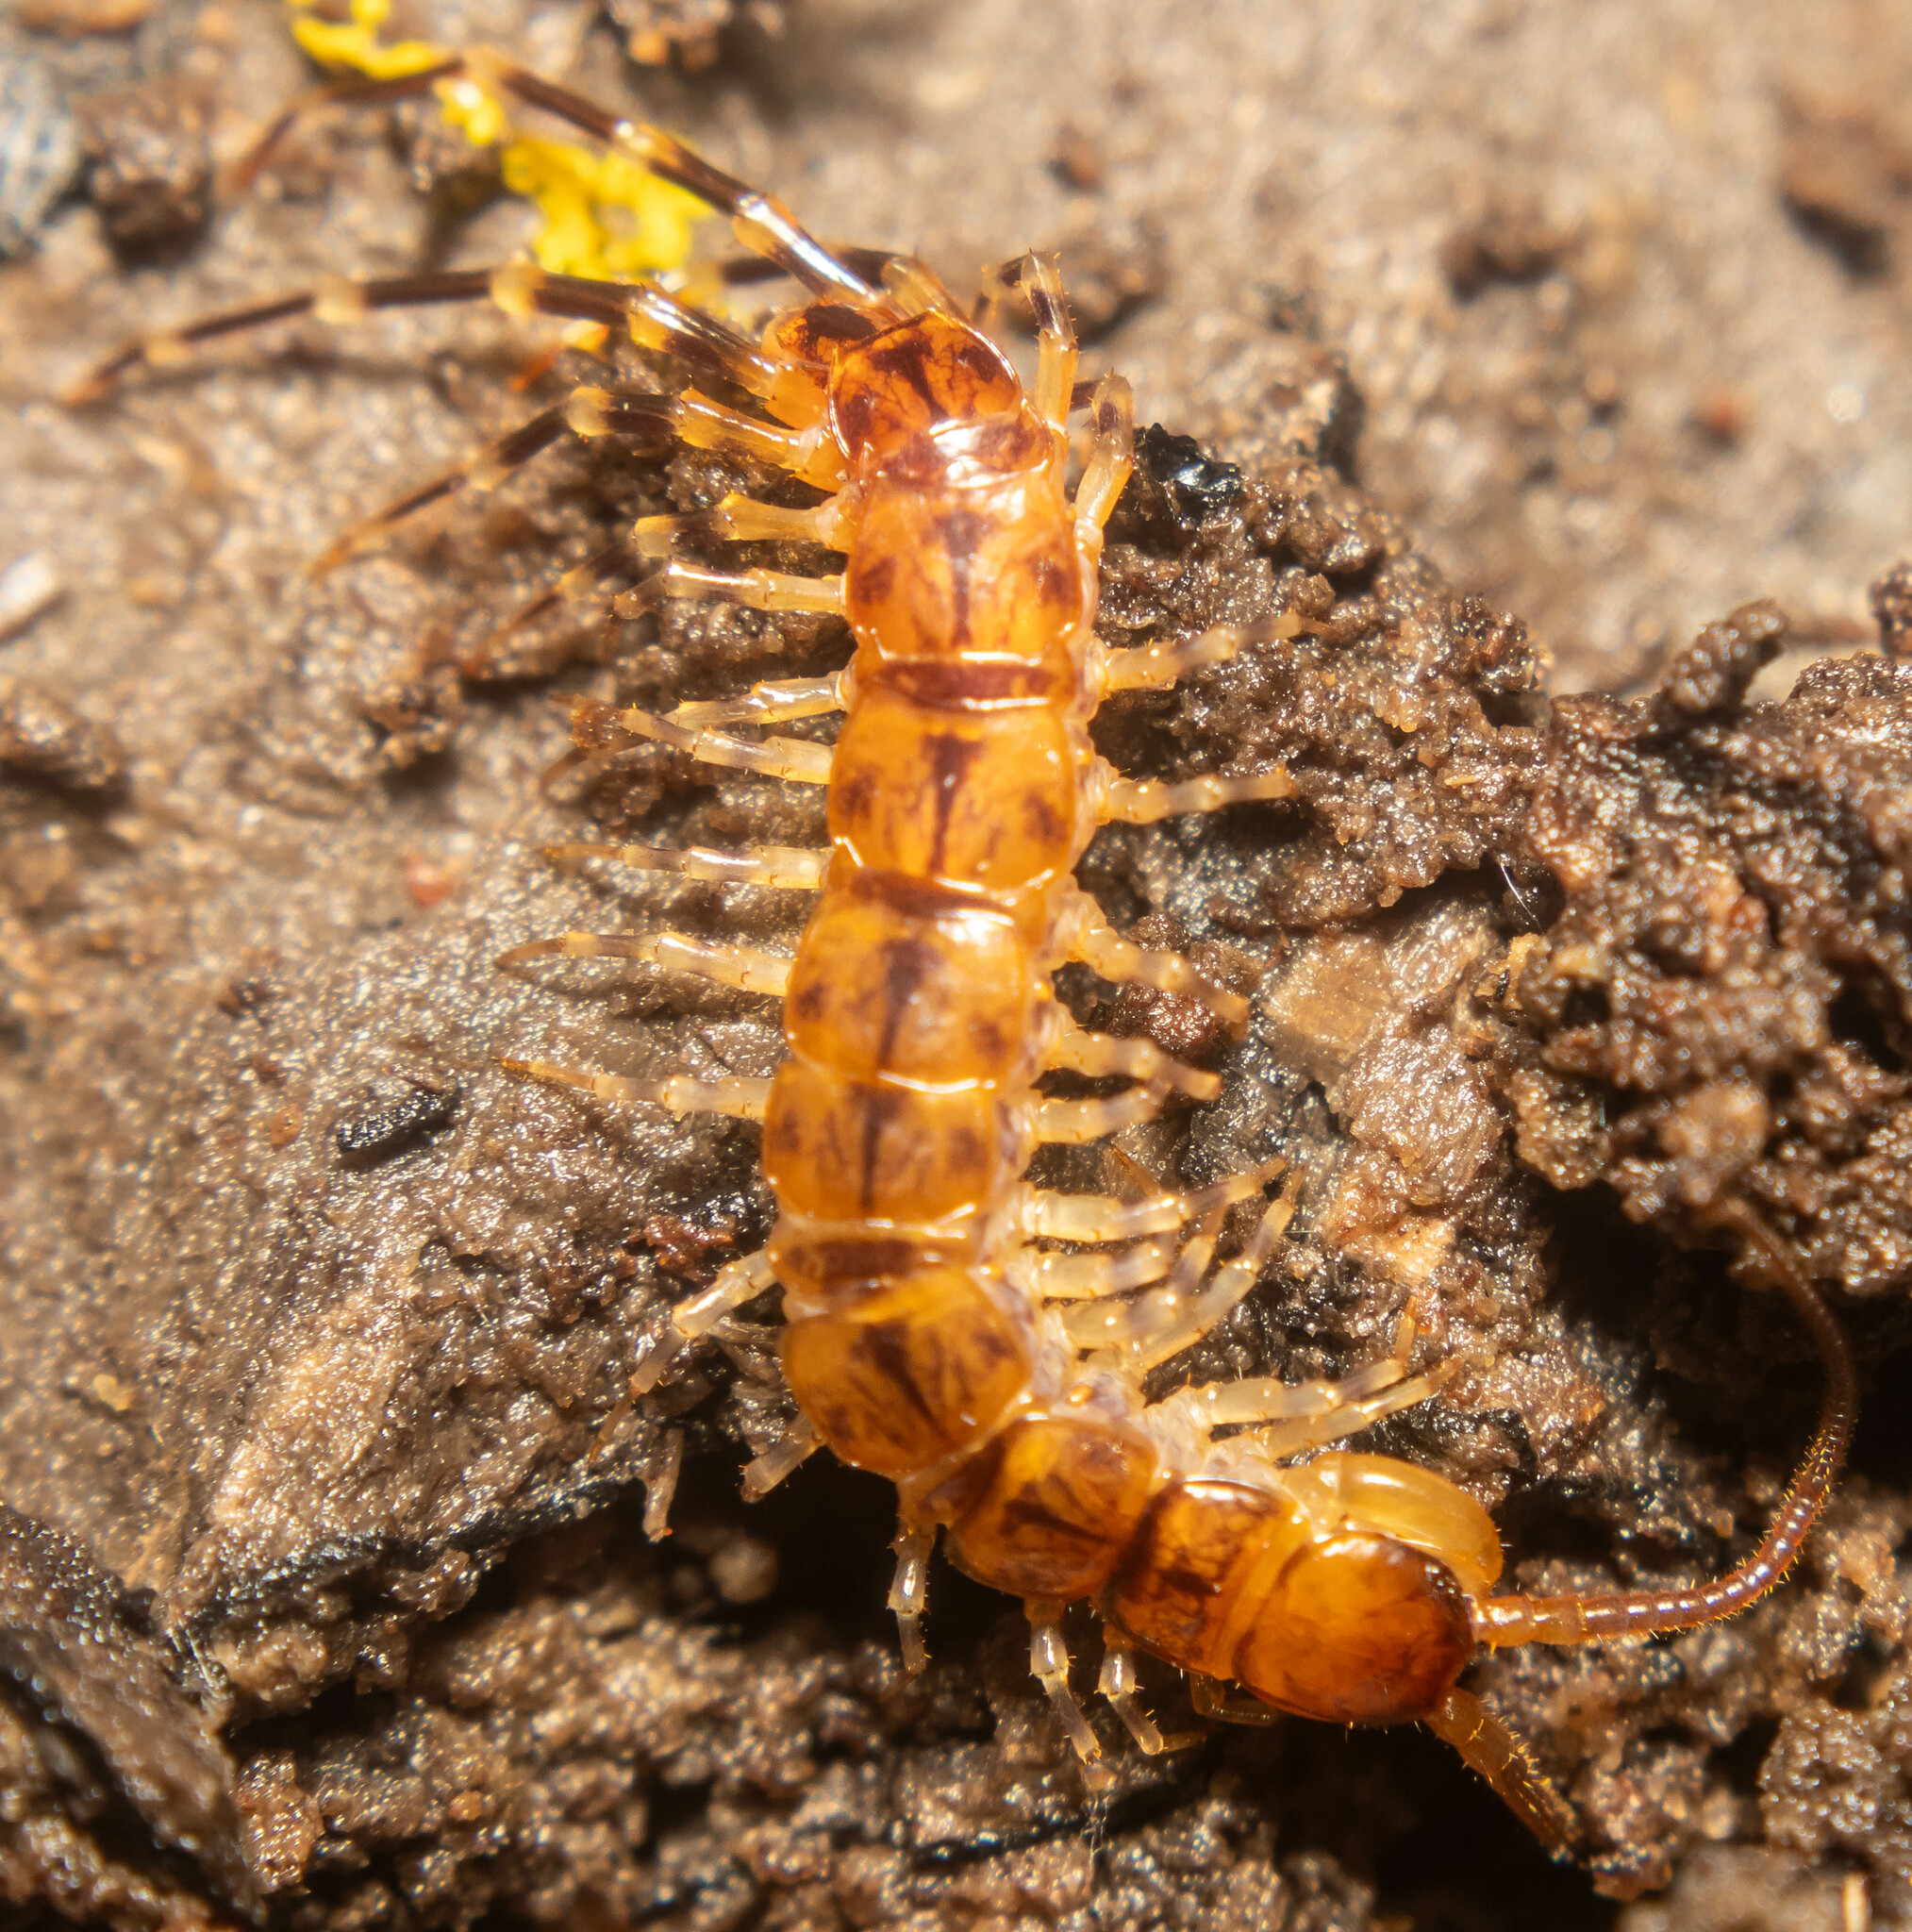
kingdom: Animalia
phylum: Arthropoda
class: Chilopoda
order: Lithobiomorpha
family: Lithobiidae
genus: Lithobius
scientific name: Lithobius variegatus
